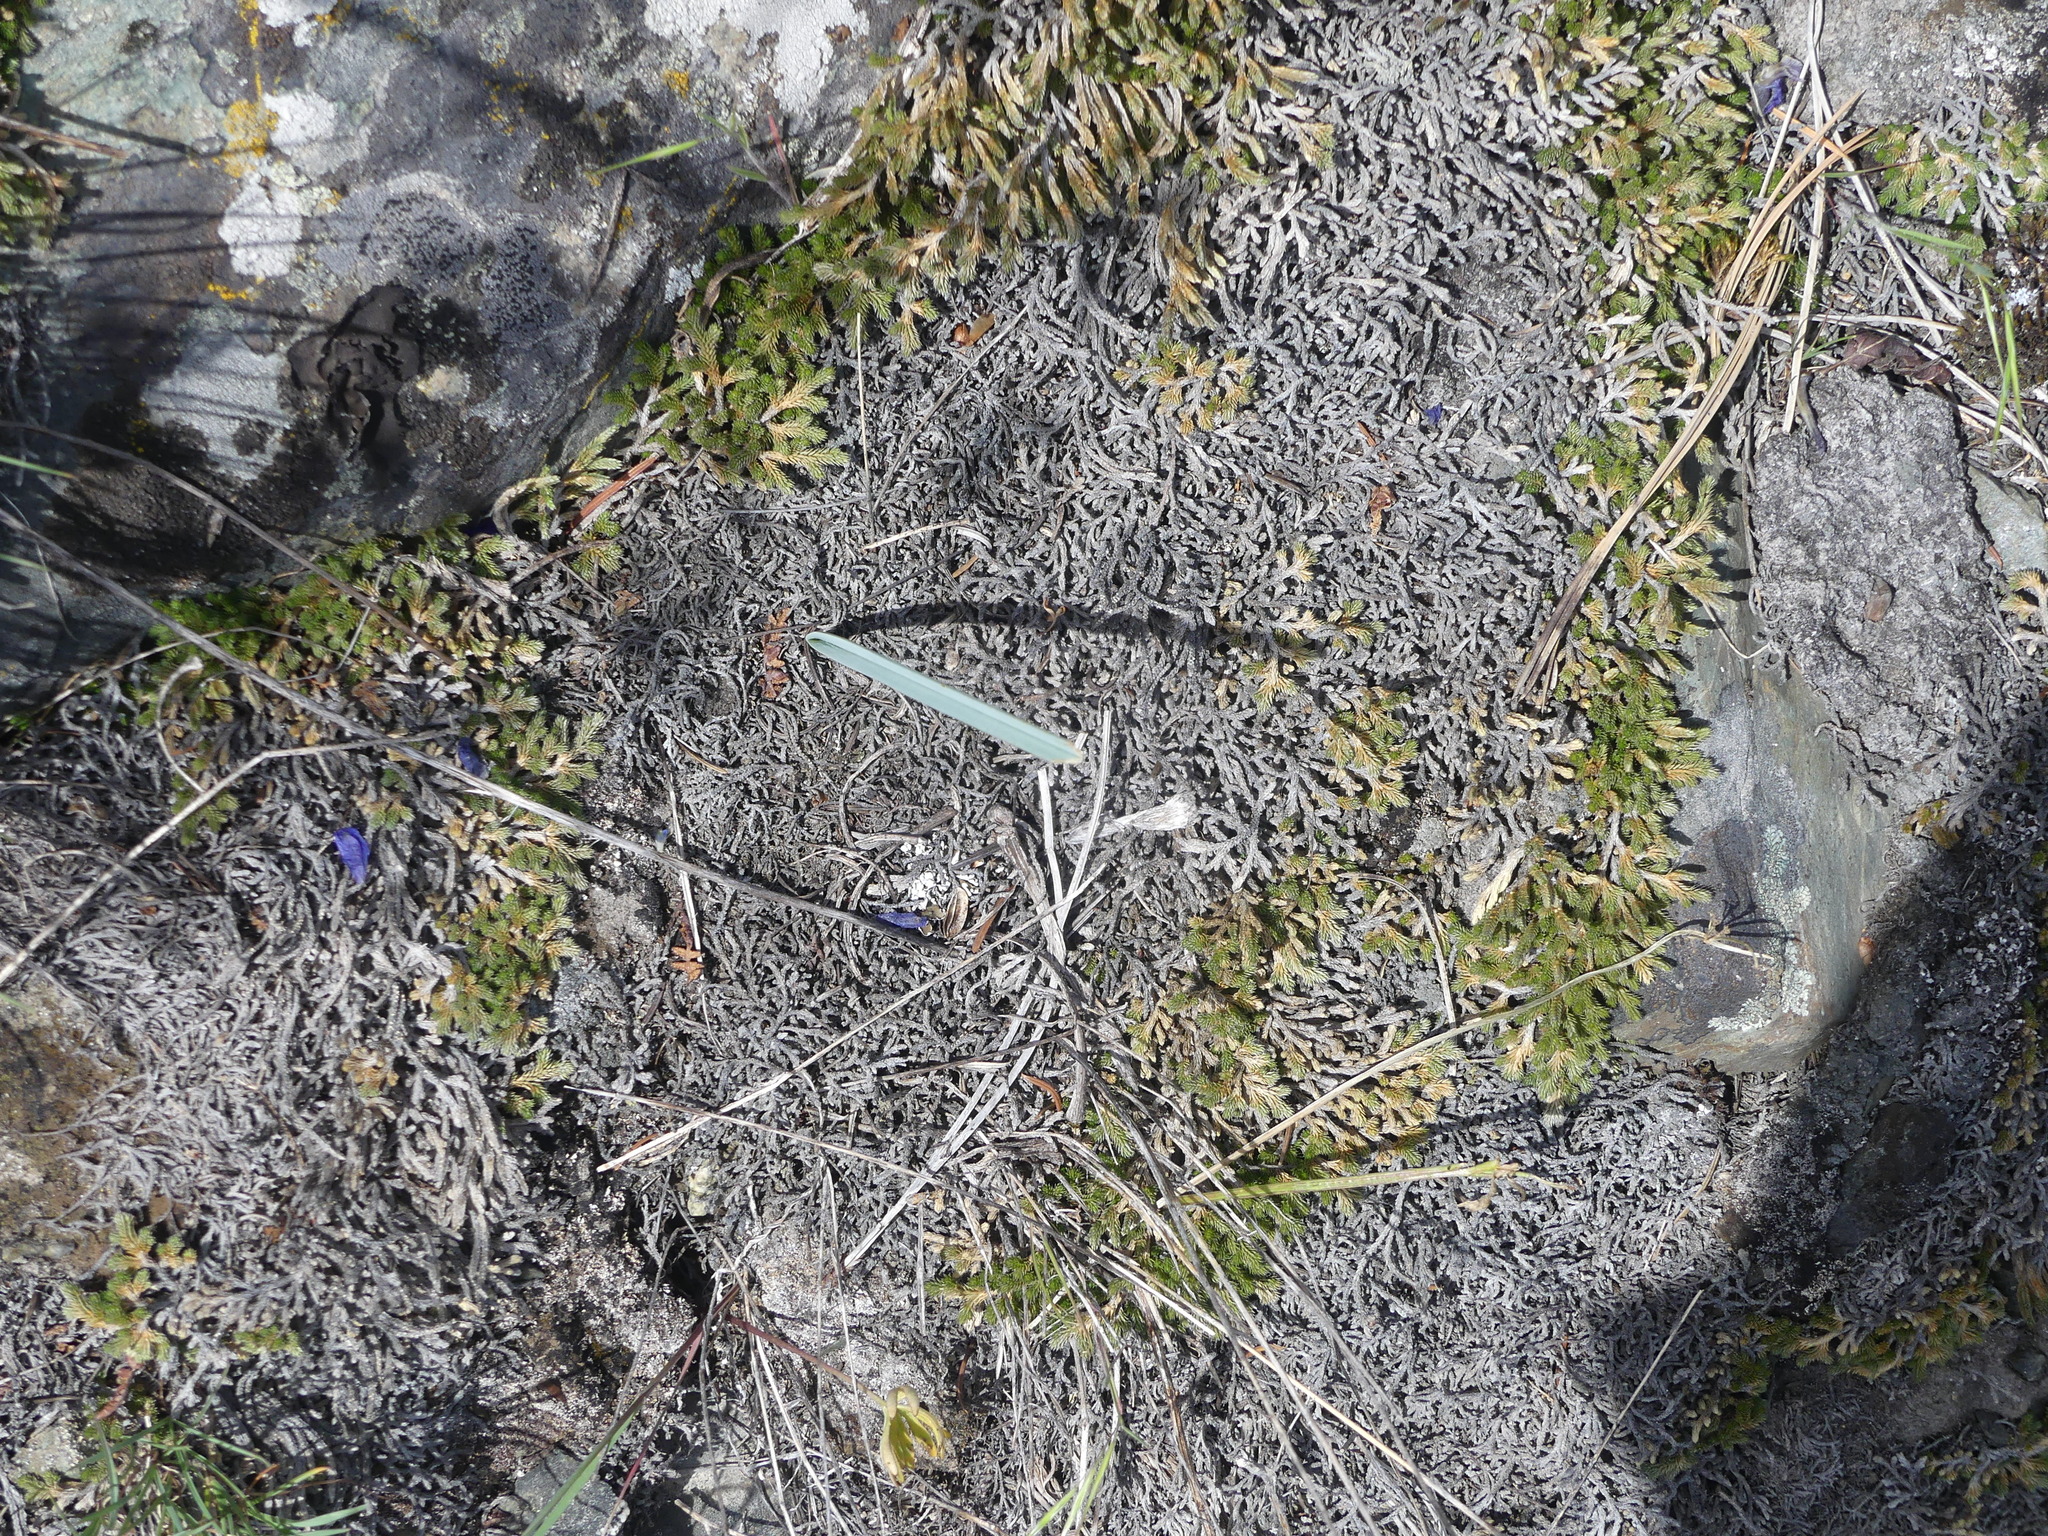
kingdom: Plantae
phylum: Tracheophyta
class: Liliopsida
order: Liliales
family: Liliaceae
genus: Calochortus
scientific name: Calochortus macrocarpus
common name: Green-band mariposa lily
